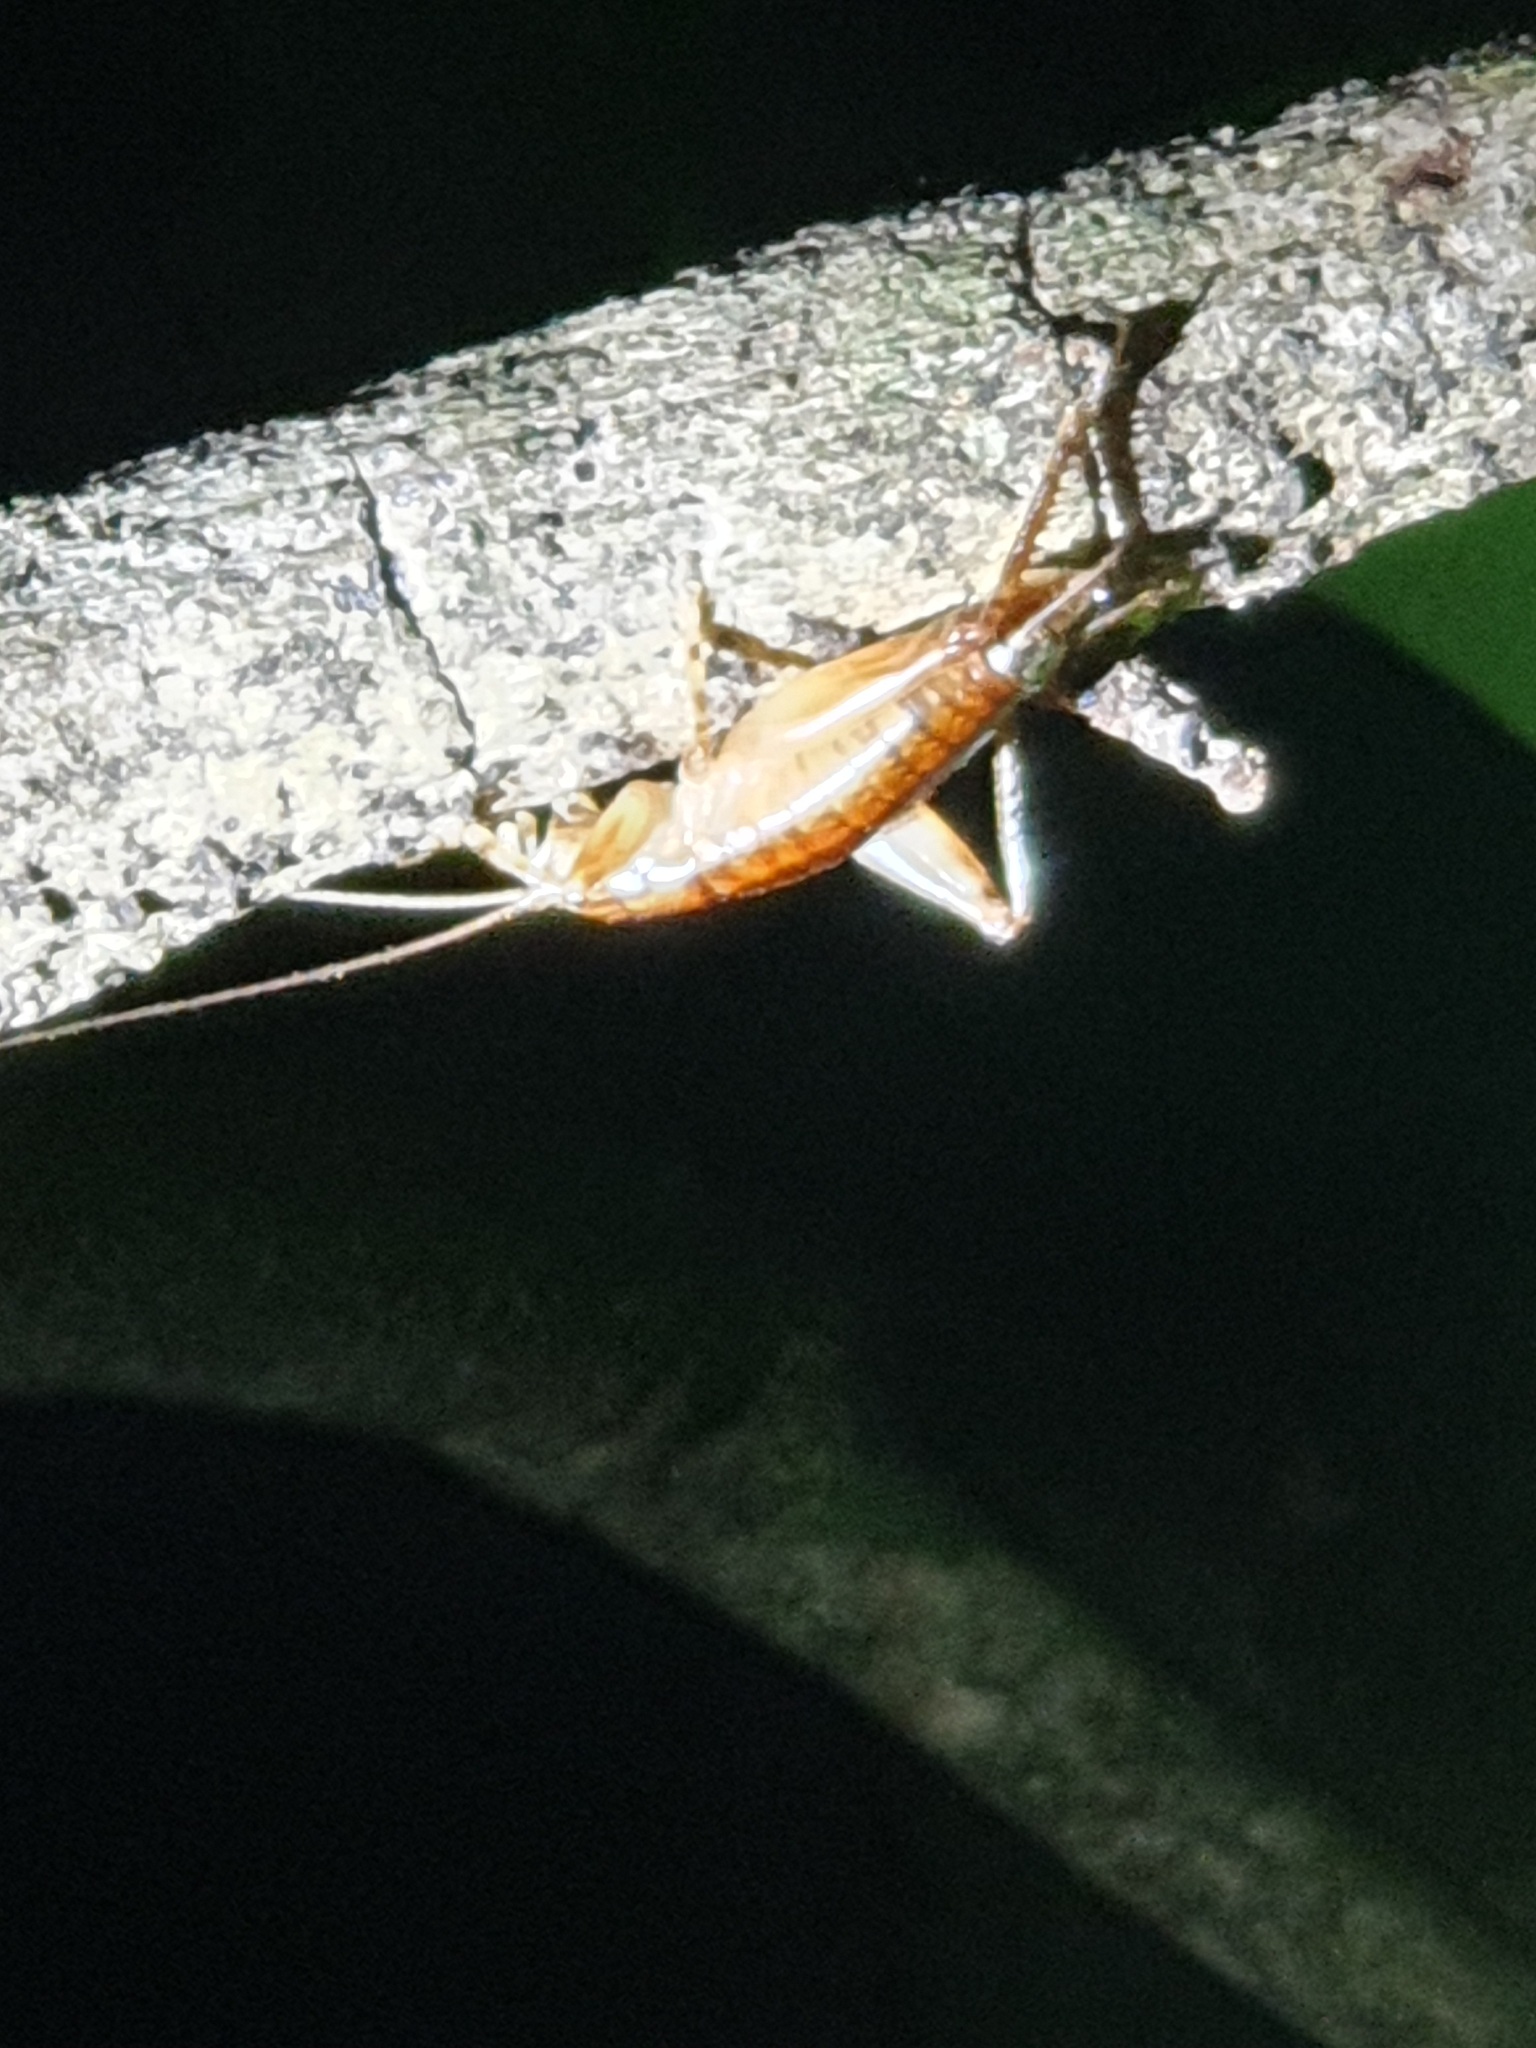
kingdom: Animalia
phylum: Arthropoda
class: Insecta
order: Orthoptera
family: Gryllidae
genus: Insulascirtus
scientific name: Insulascirtus nythos
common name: Nythos island cricket
